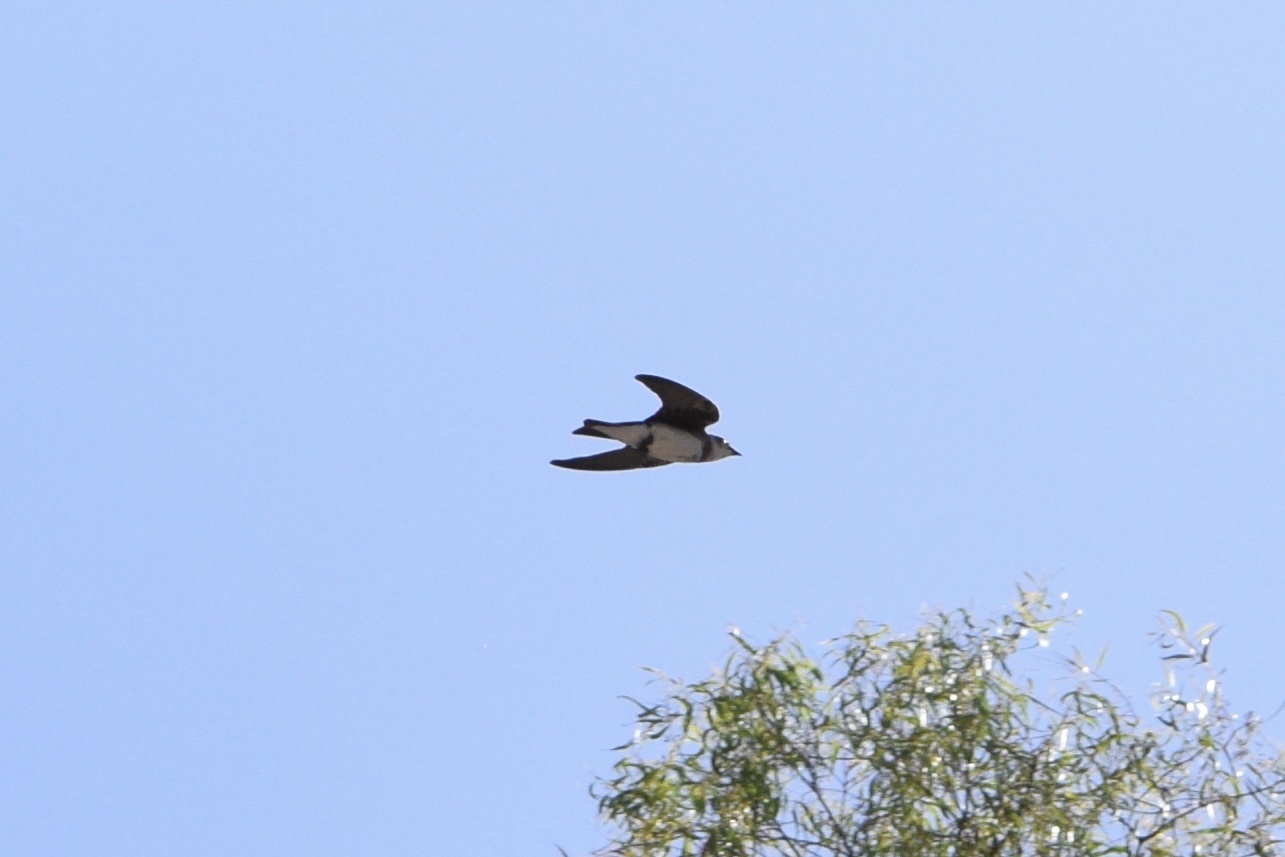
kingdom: Animalia
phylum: Chordata
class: Aves
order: Passeriformes
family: Hirundinidae
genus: Progne
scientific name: Progne tapera
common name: Brown-chested martin
